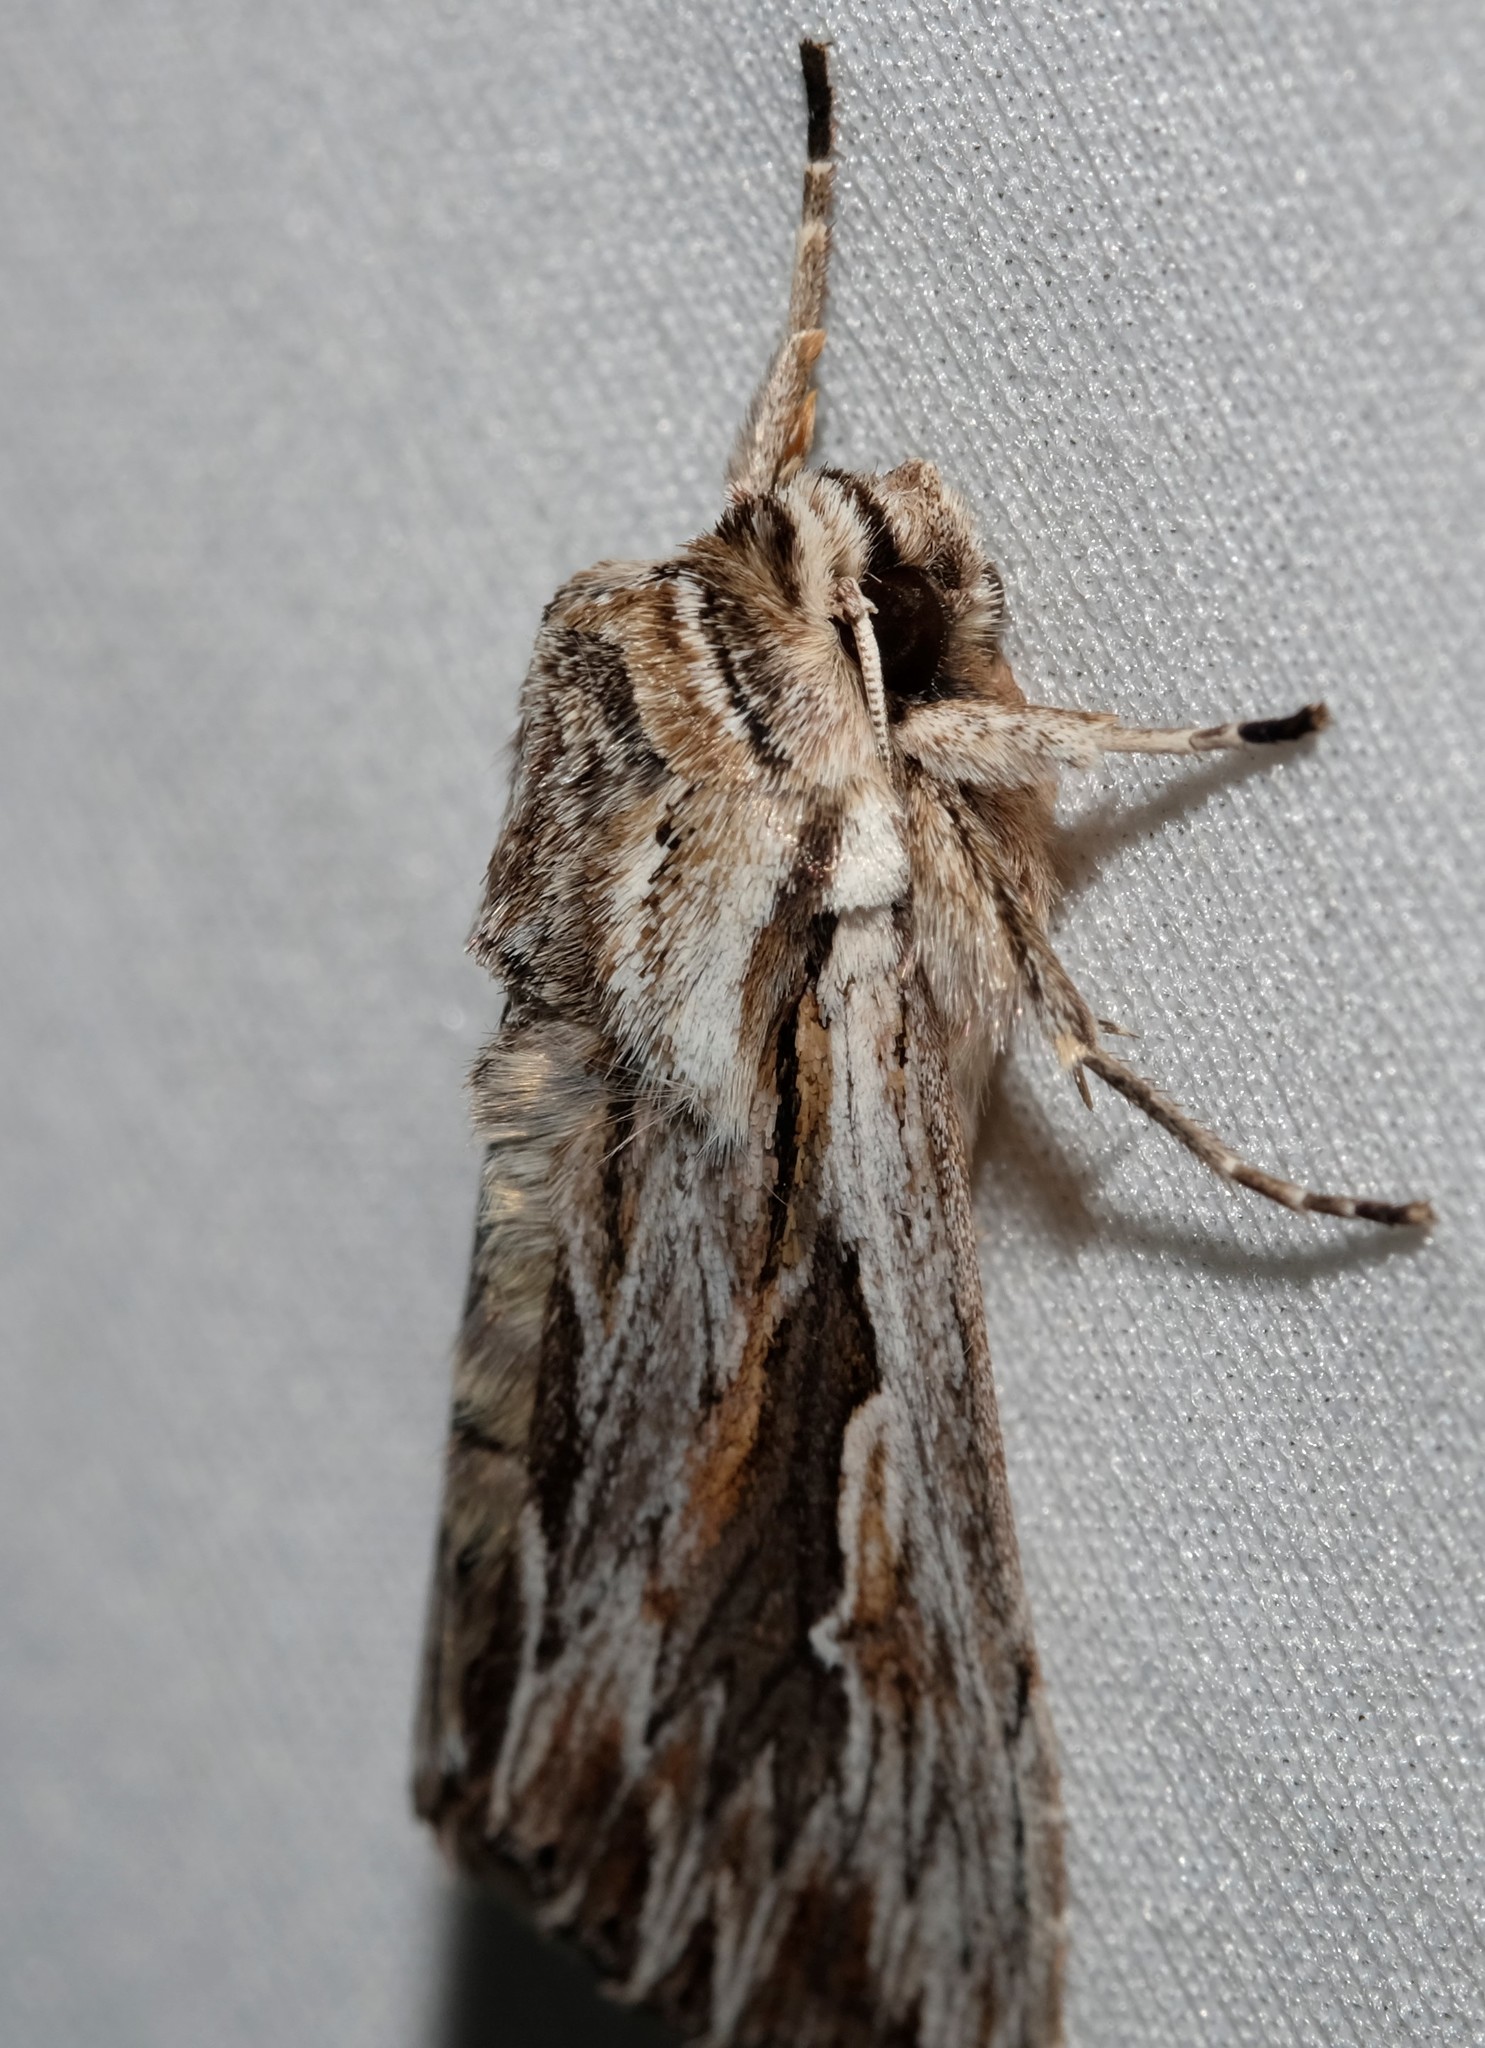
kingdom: Animalia
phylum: Arthropoda
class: Insecta
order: Lepidoptera
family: Noctuidae
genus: Persectania
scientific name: Persectania ewingii
